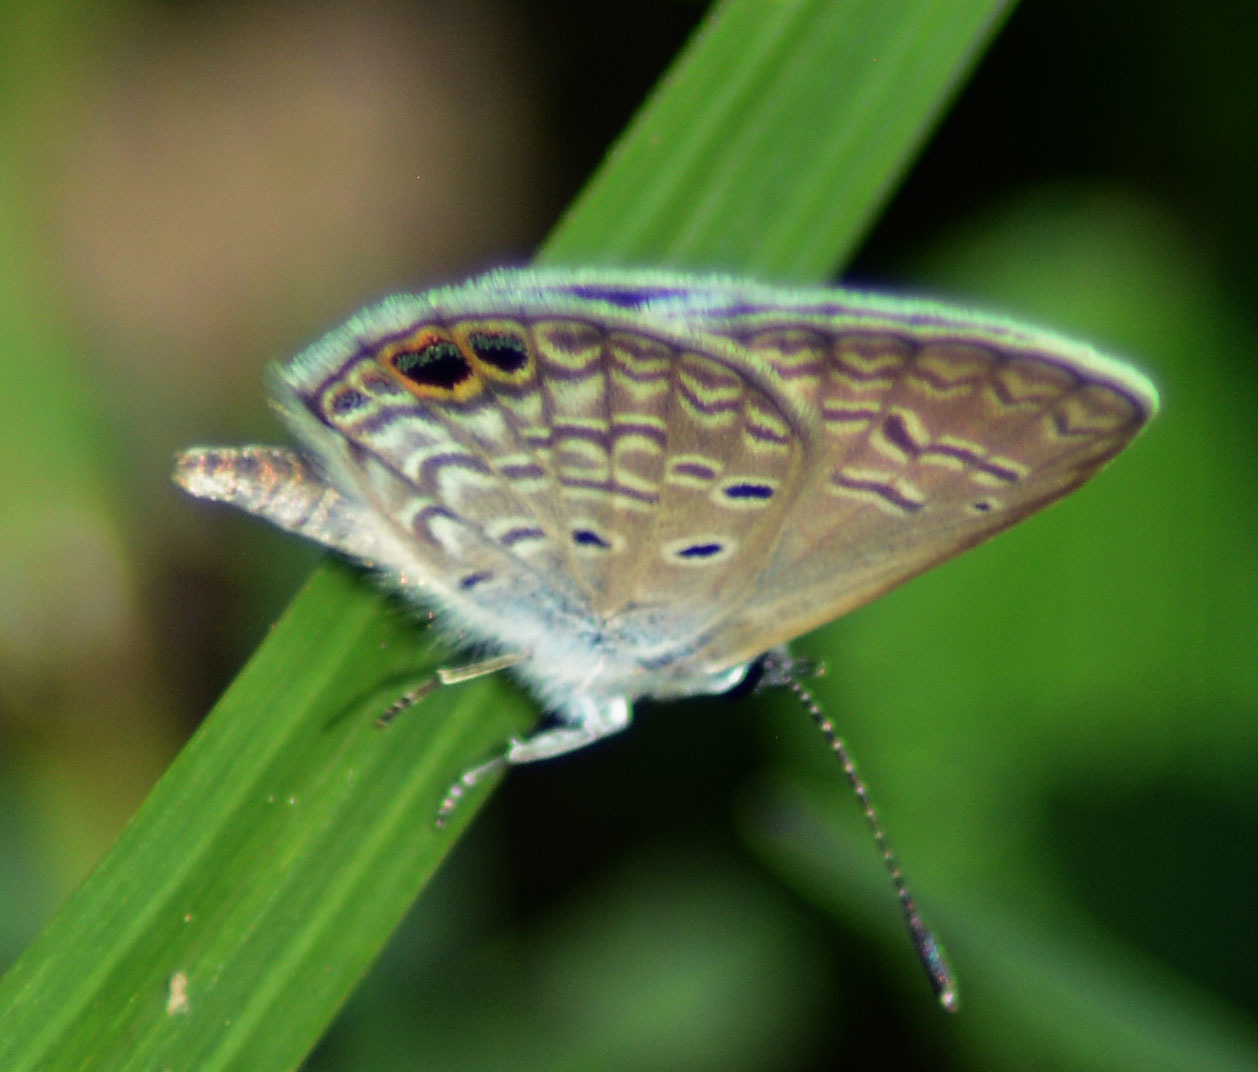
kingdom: Animalia
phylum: Arthropoda
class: Insecta
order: Lepidoptera
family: Lycaenidae
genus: Hemiargus
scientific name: Hemiargus ceraunus
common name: Ceraunus blue
